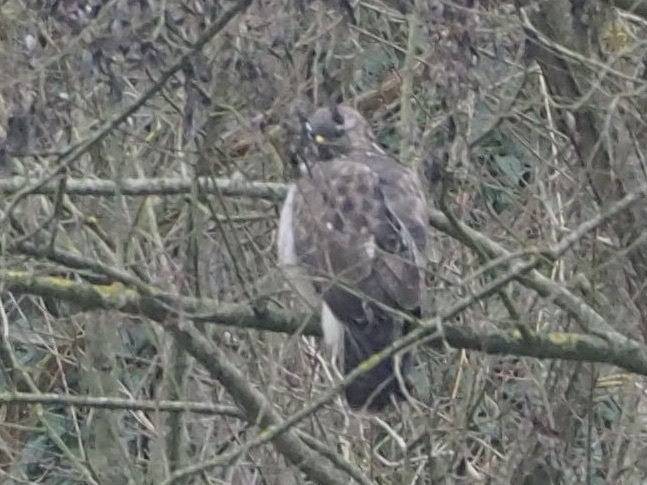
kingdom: Animalia
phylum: Chordata
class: Aves
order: Accipitriformes
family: Accipitridae
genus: Buteo
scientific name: Buteo buteo
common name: Common buzzard
